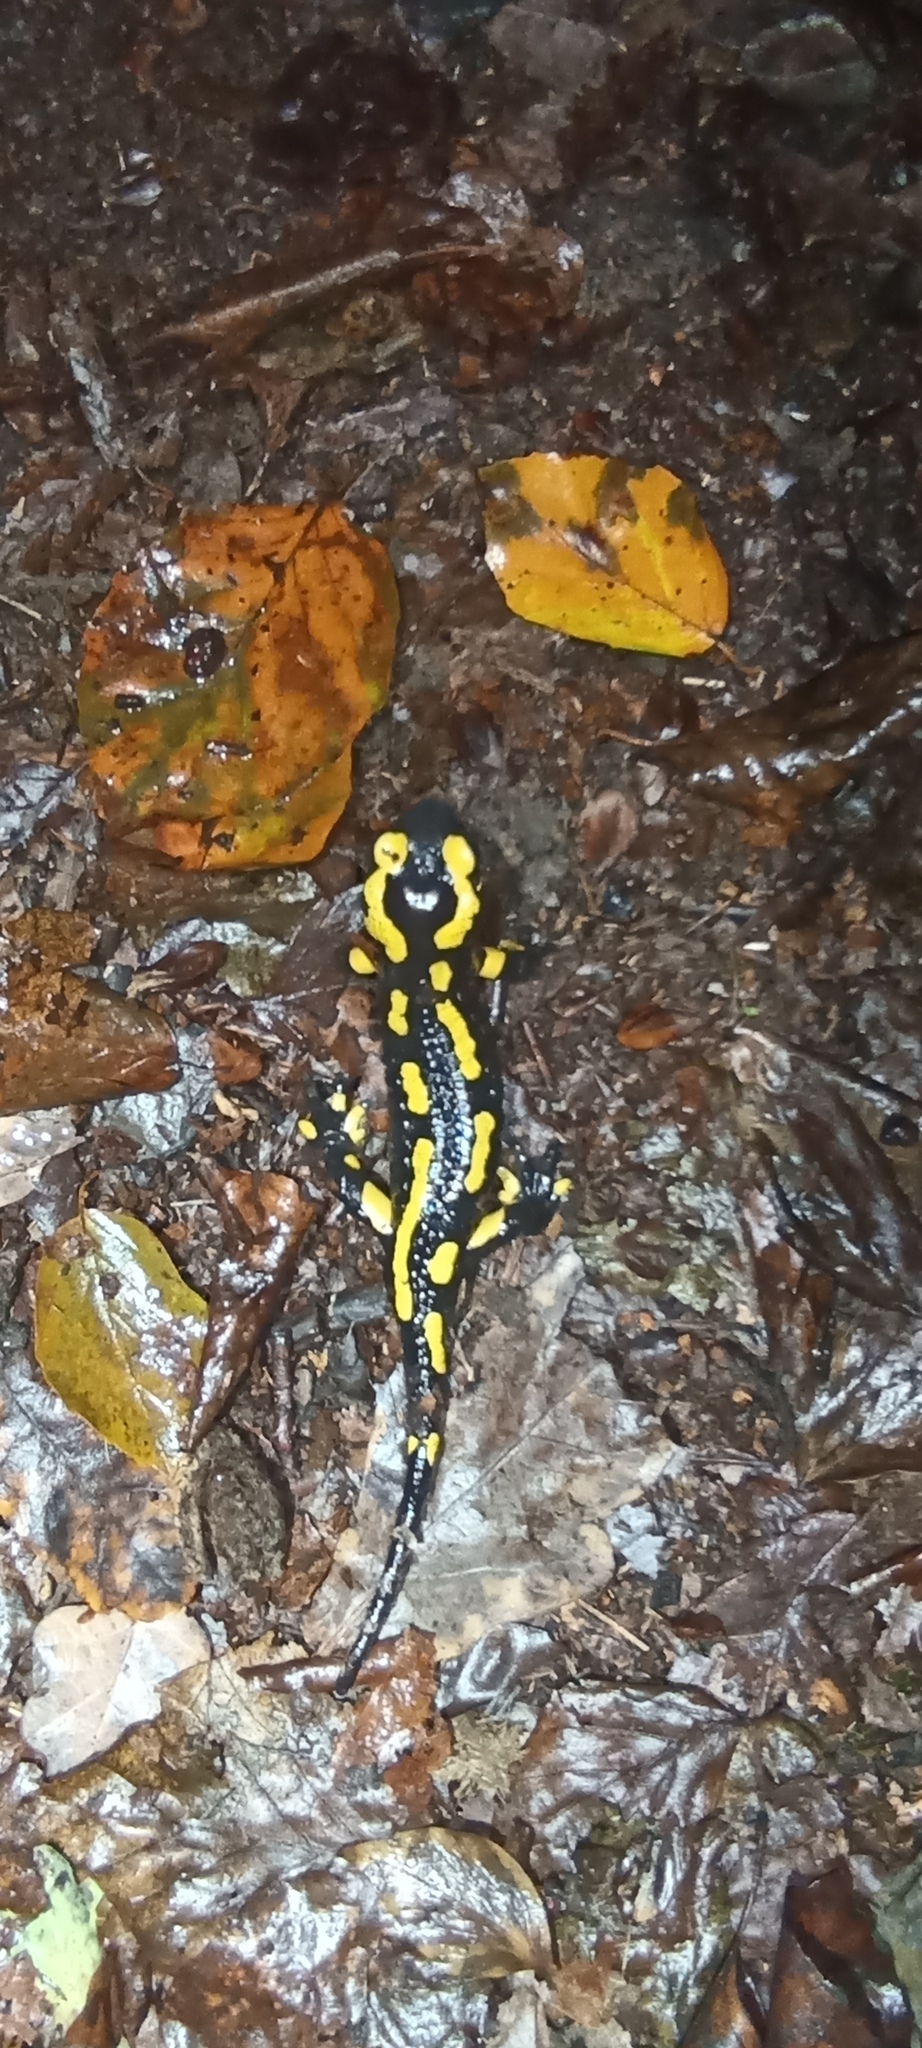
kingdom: Animalia
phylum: Chordata
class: Amphibia
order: Caudata
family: Salamandridae
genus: Salamandra
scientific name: Salamandra salamandra
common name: Fire salamander
